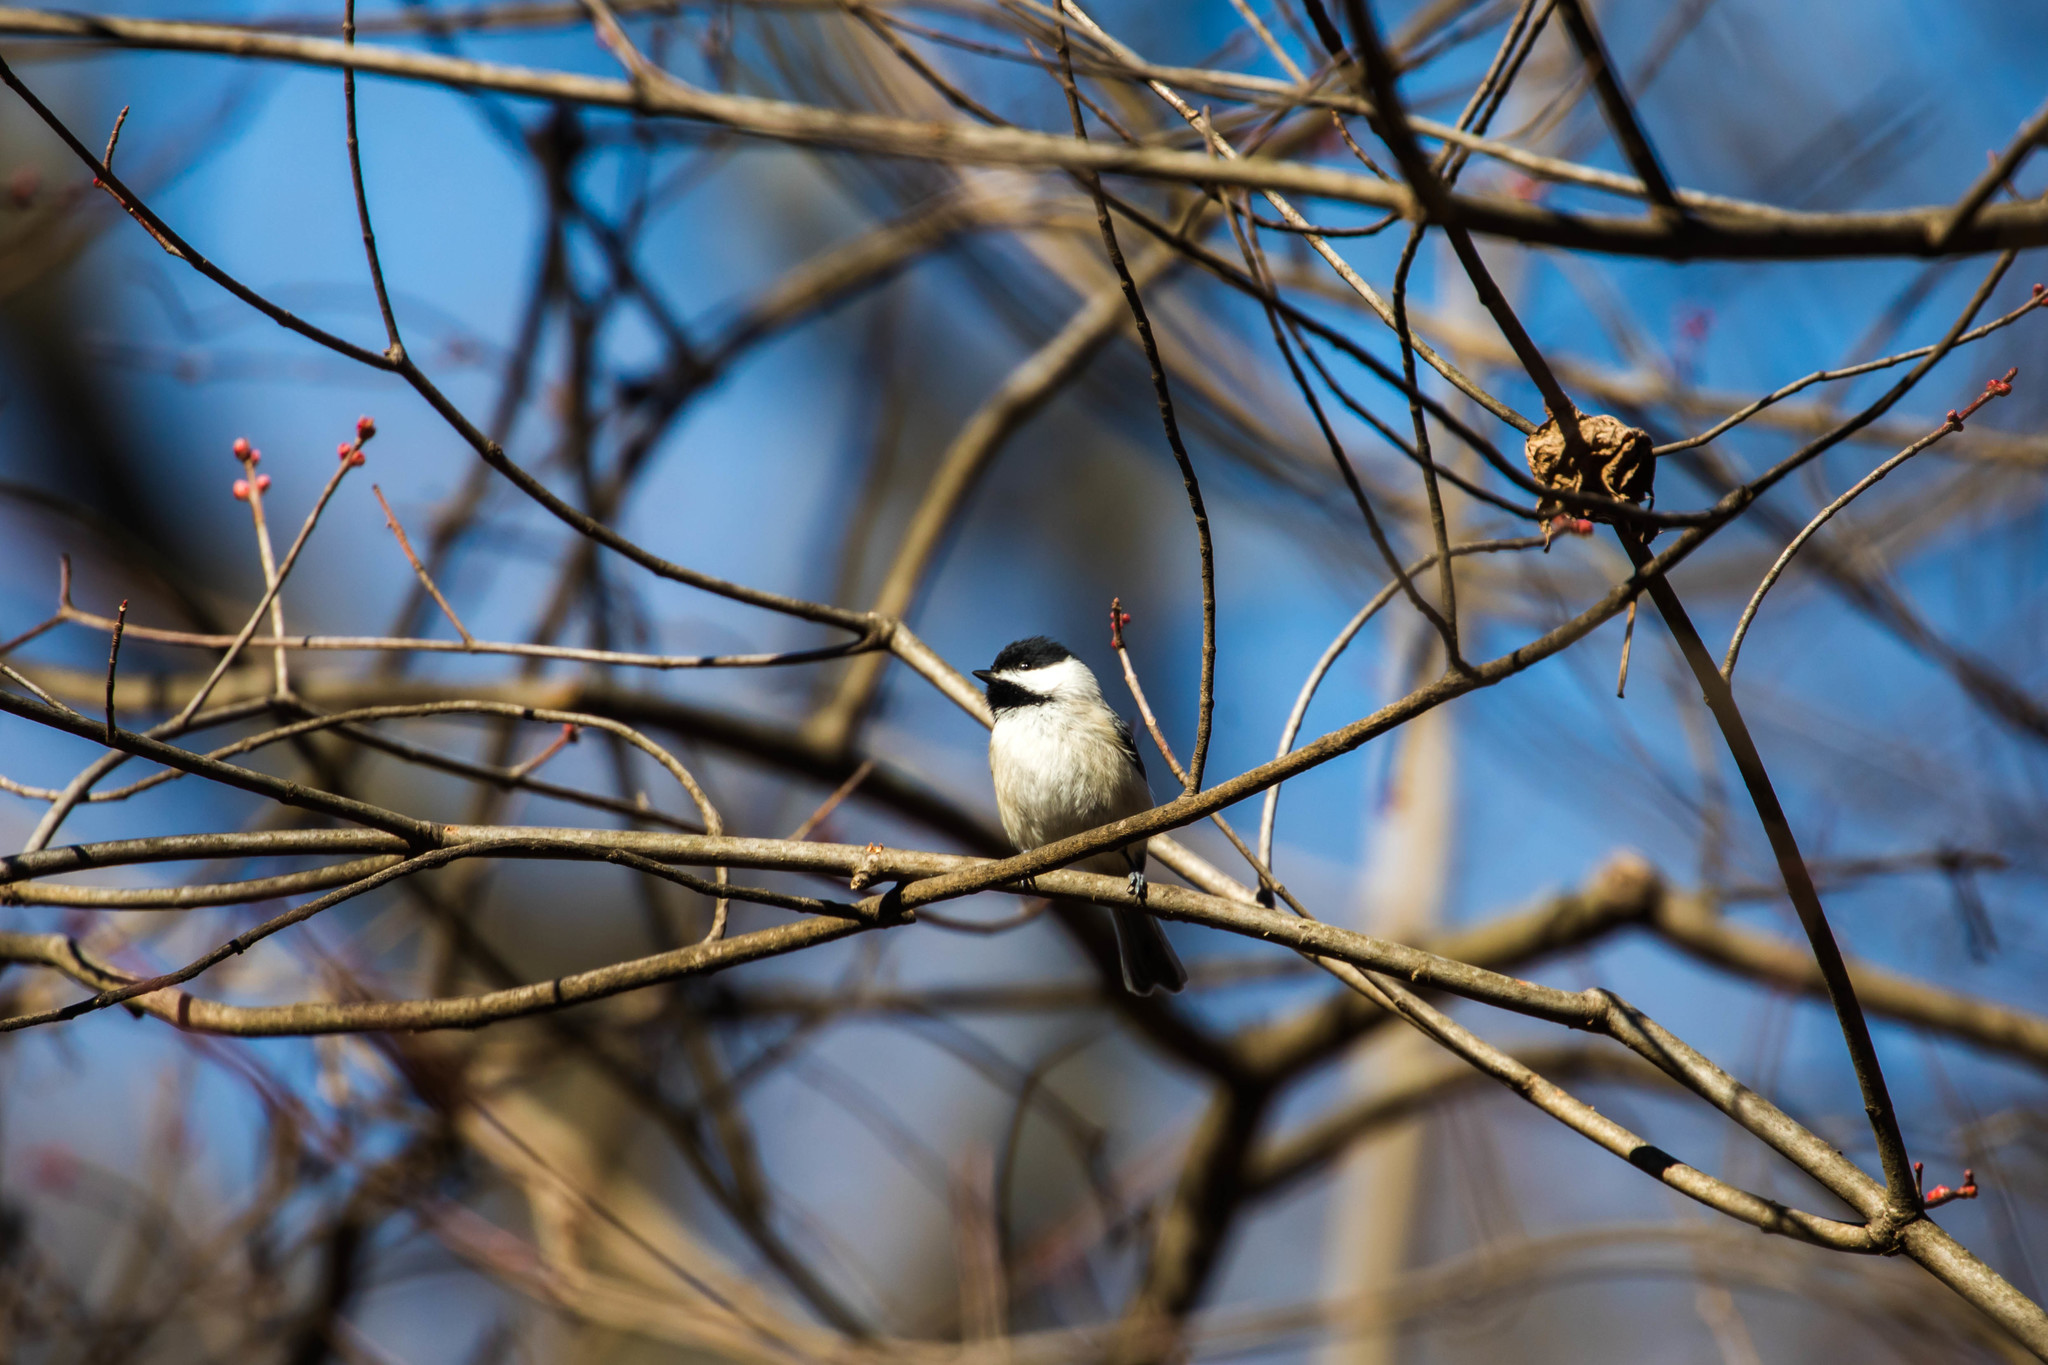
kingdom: Animalia
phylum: Chordata
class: Aves
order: Passeriformes
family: Paridae
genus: Poecile
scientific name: Poecile carolinensis
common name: Carolina chickadee
